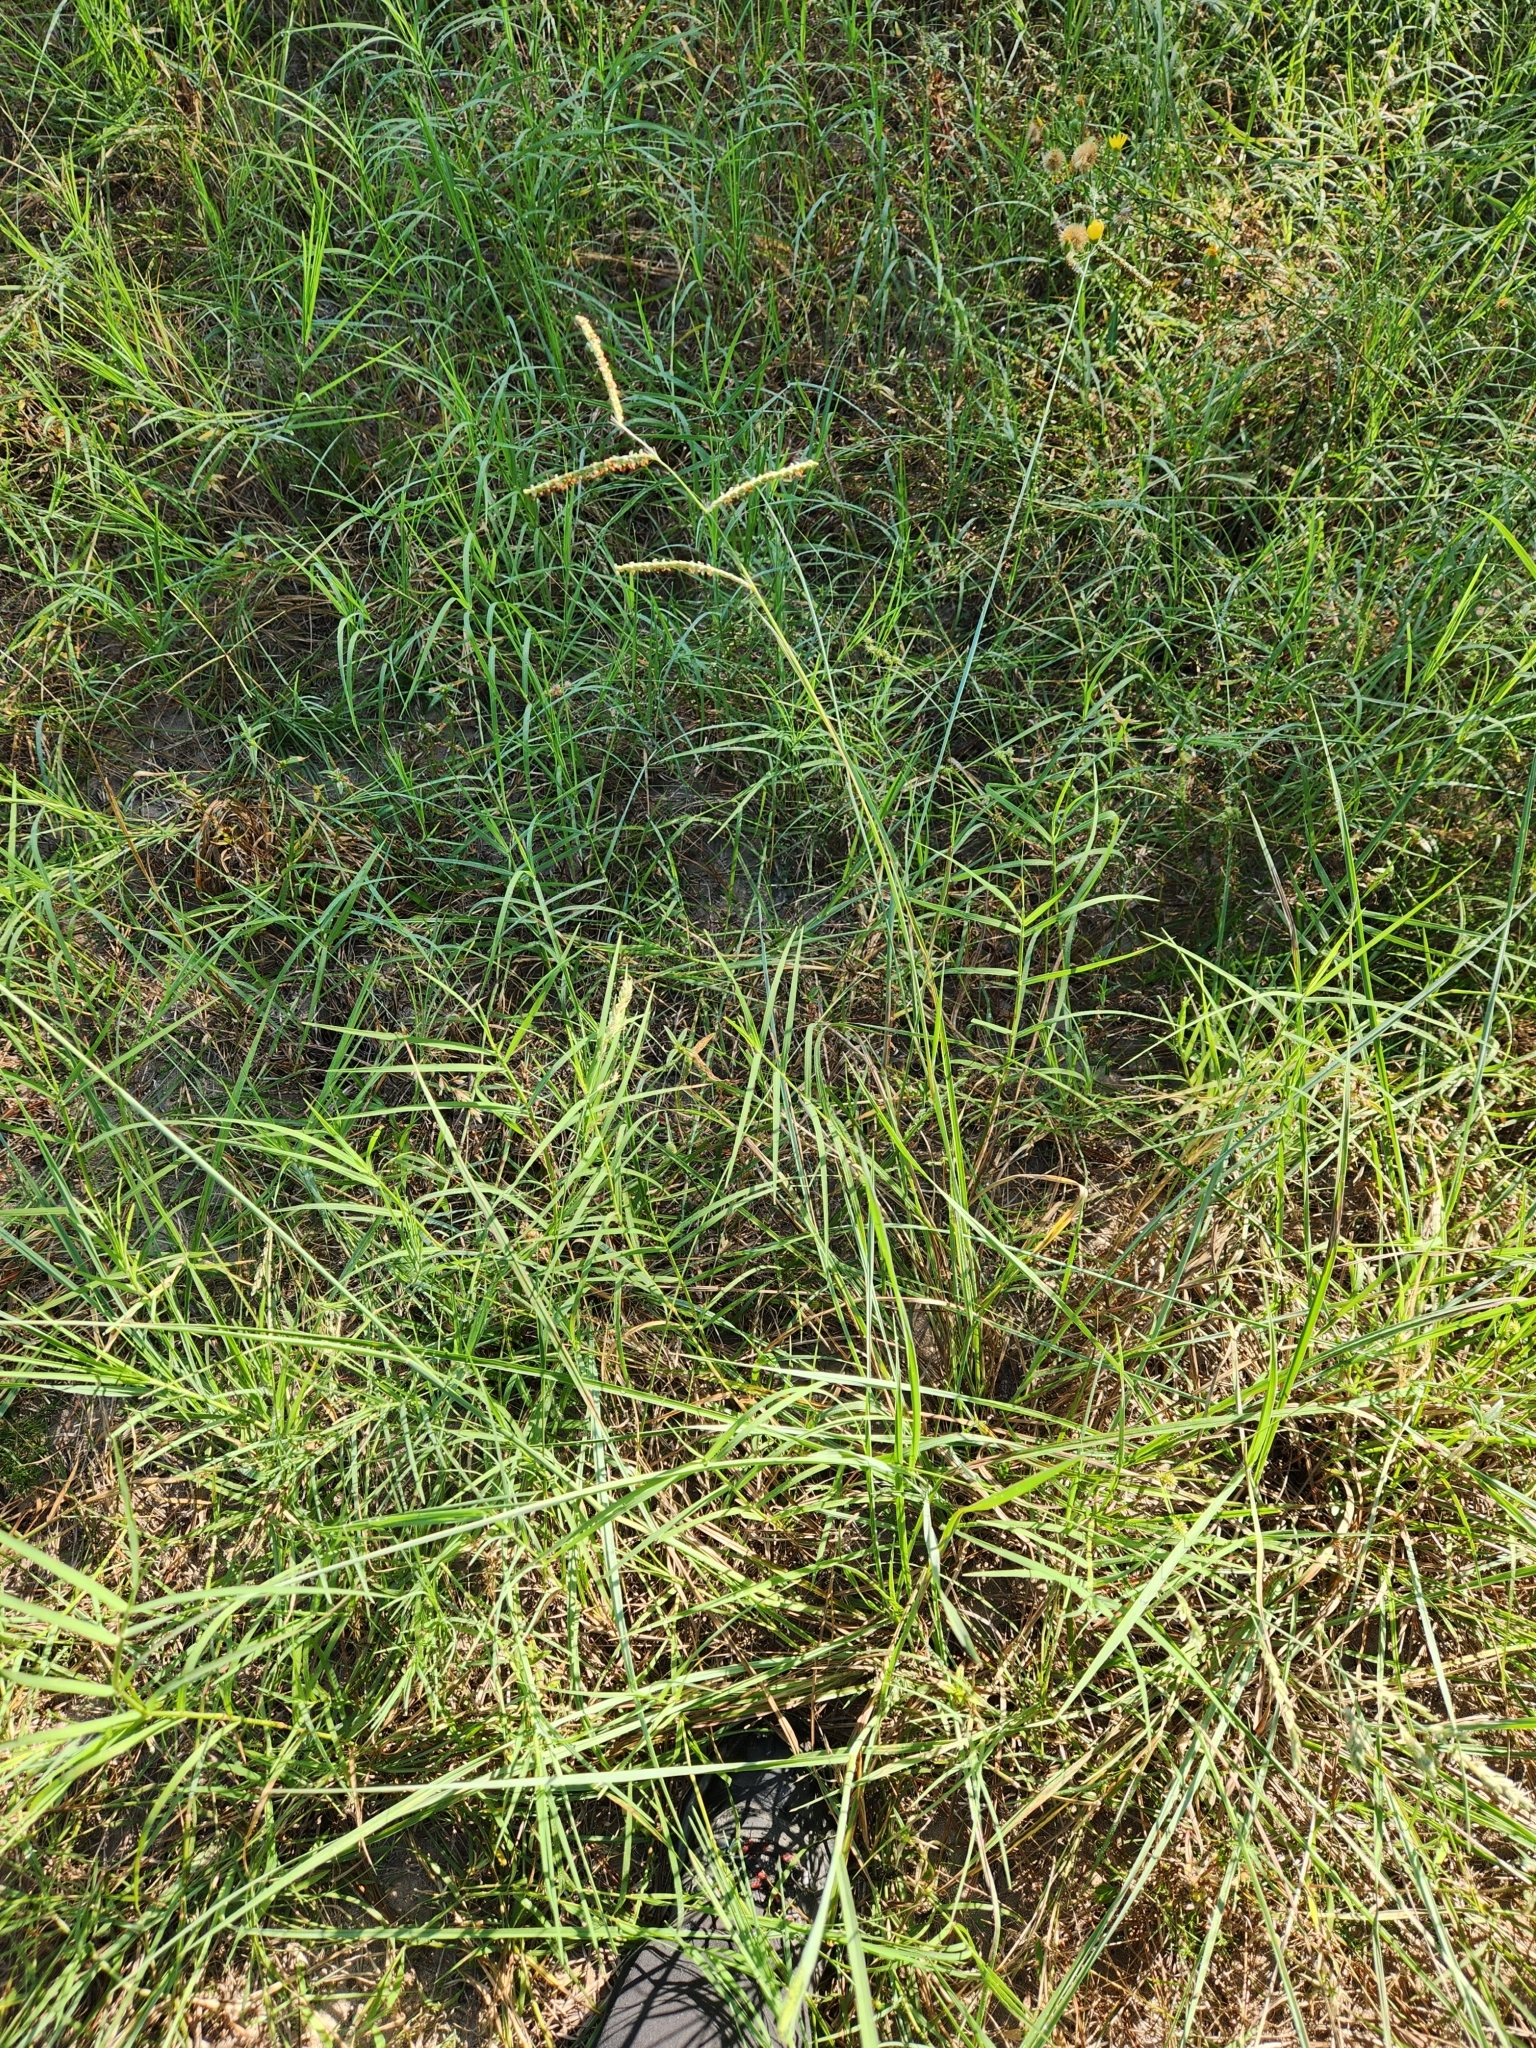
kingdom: Plantae
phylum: Tracheophyta
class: Liliopsida
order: Poales
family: Poaceae
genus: Paspalum
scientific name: Paspalum plicatulum
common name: Top paspalum
